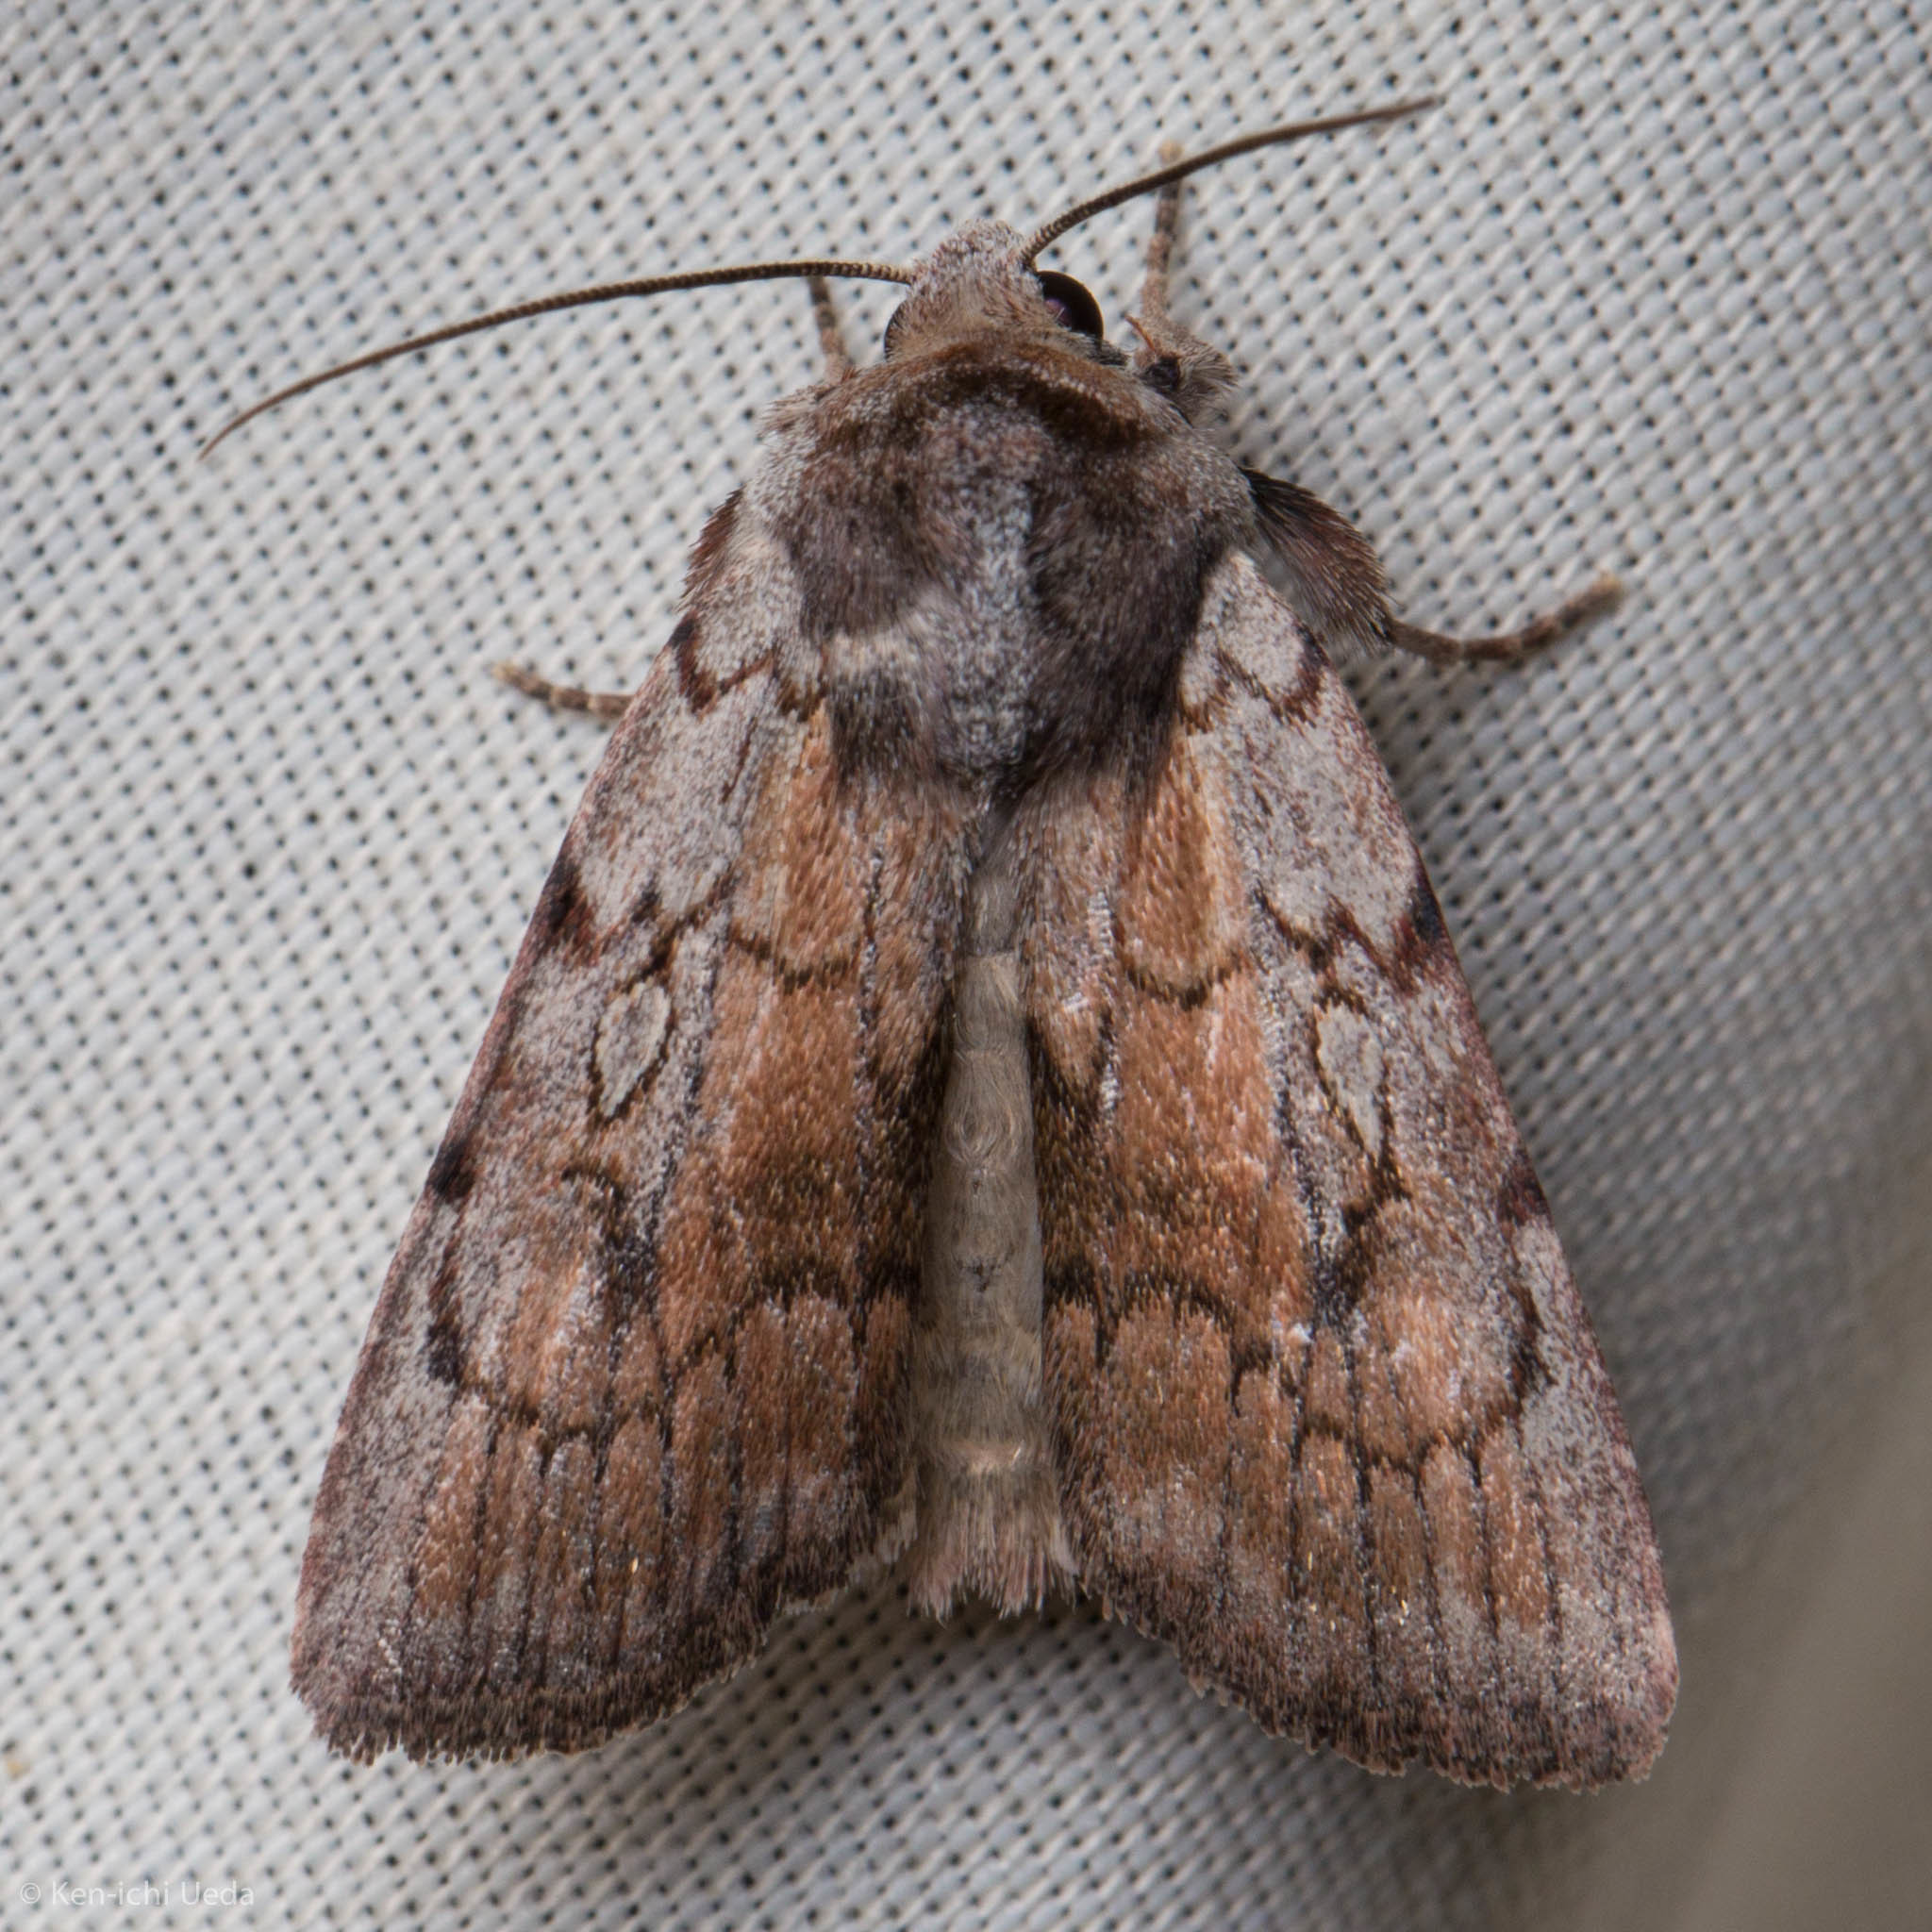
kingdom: Animalia
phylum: Arthropoda
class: Insecta
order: Lepidoptera
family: Noctuidae
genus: Setagrotis
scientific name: Setagrotis pallidicollis
